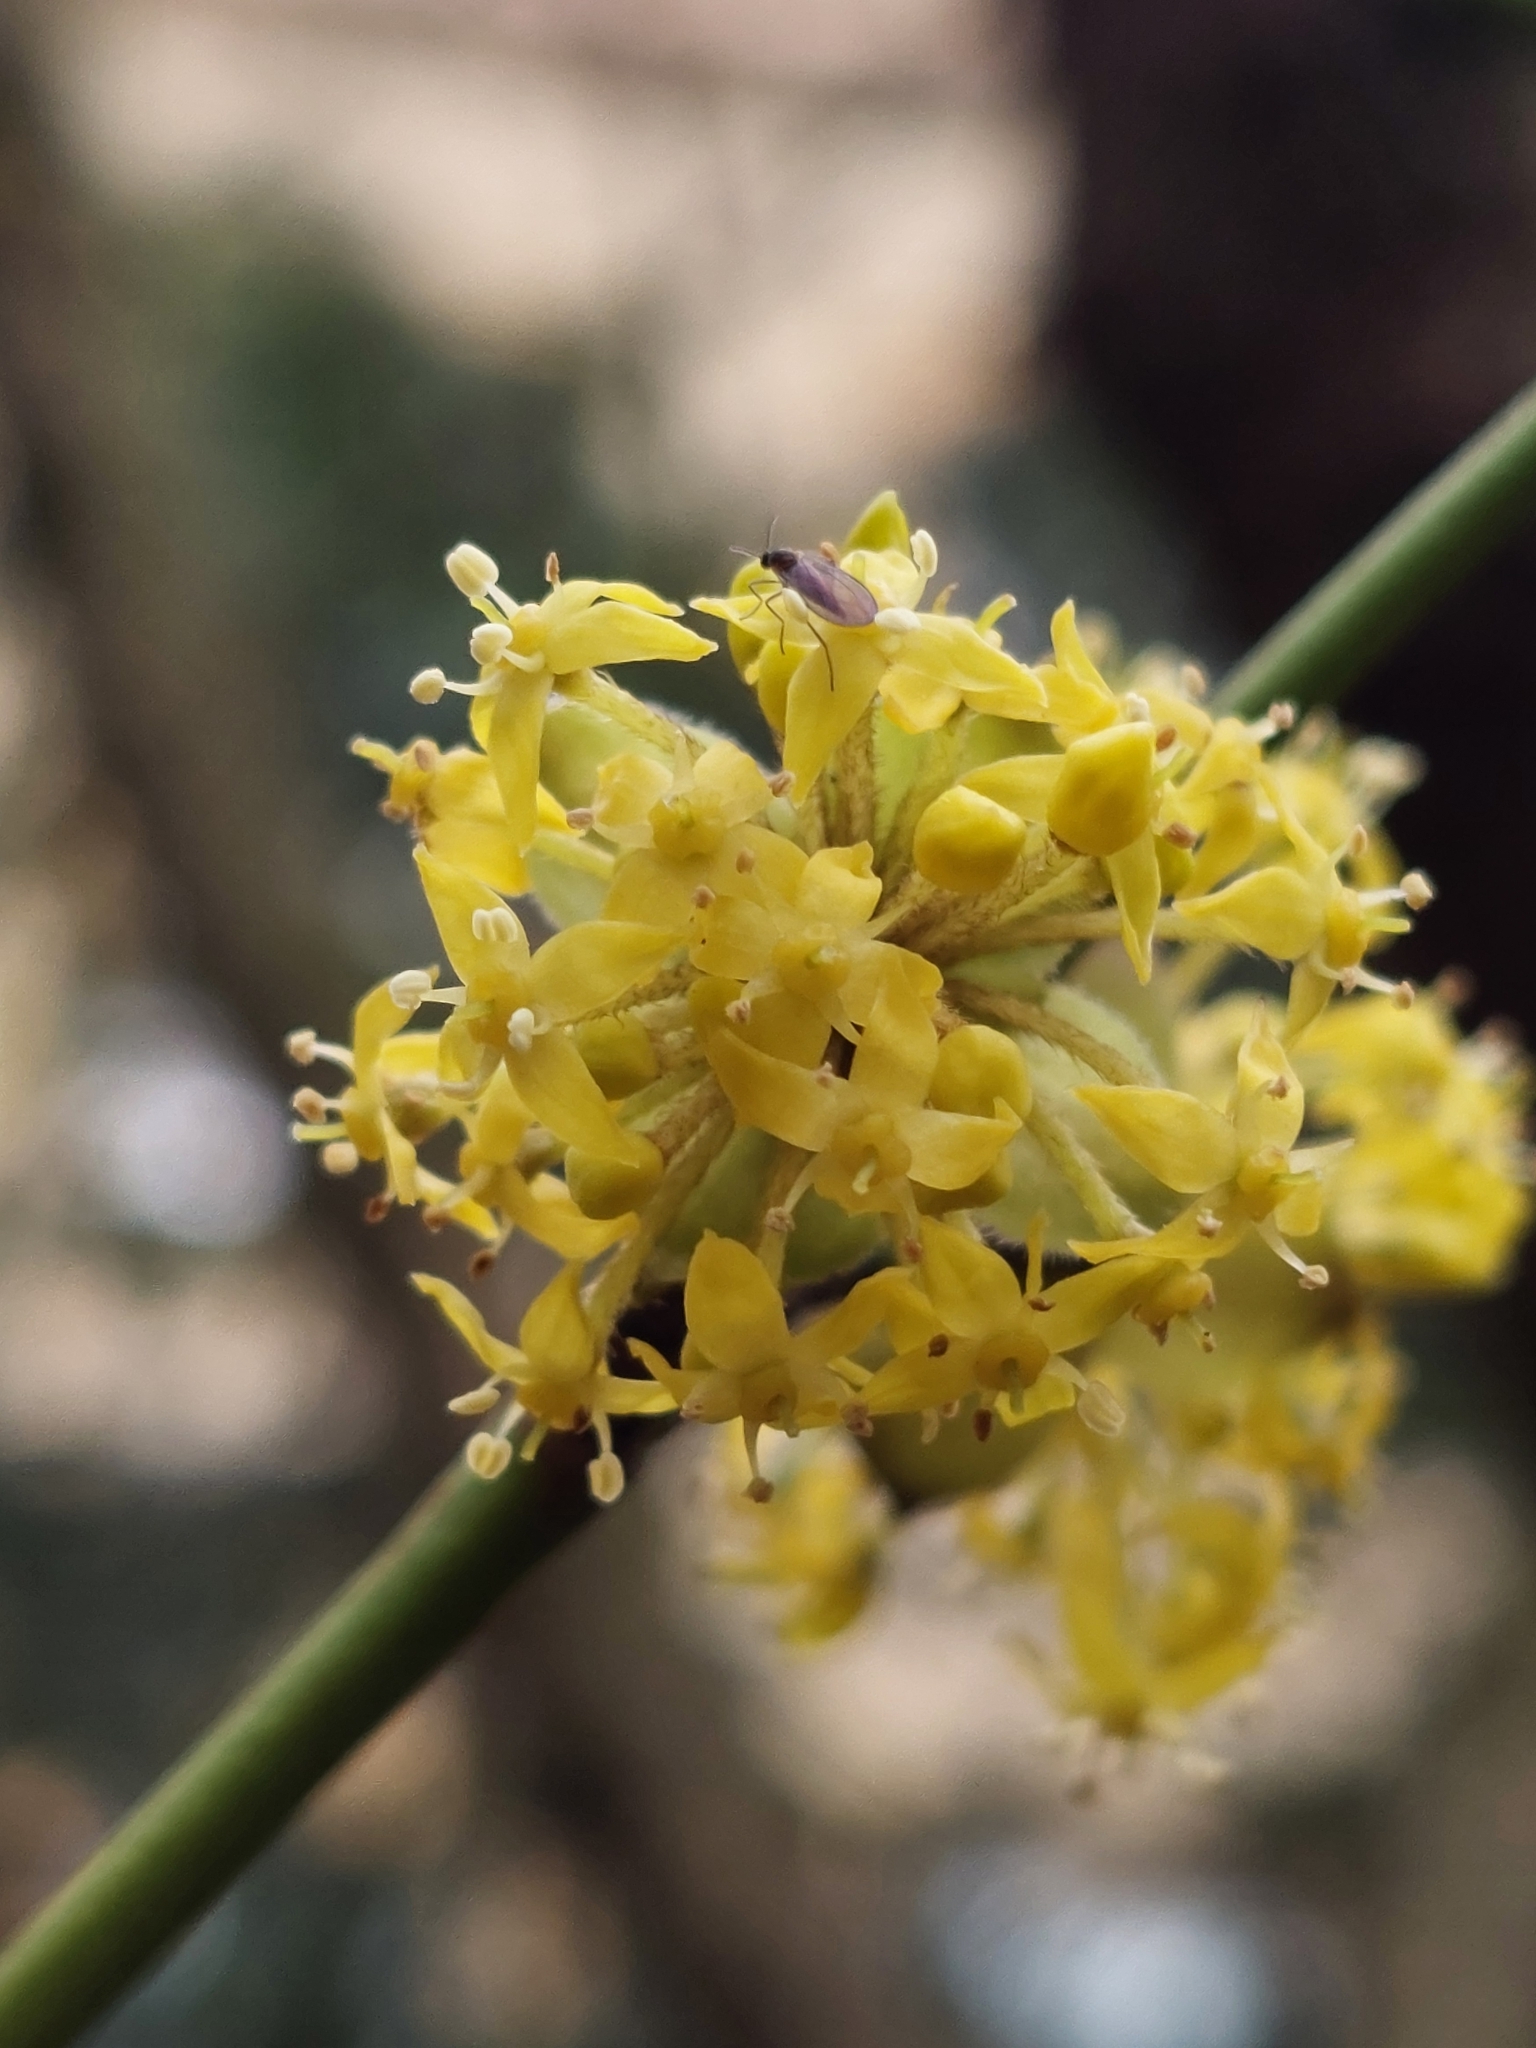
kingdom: Plantae
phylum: Tracheophyta
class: Magnoliopsida
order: Cornales
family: Cornaceae
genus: Cornus
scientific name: Cornus mas
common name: Cornelian-cherry
